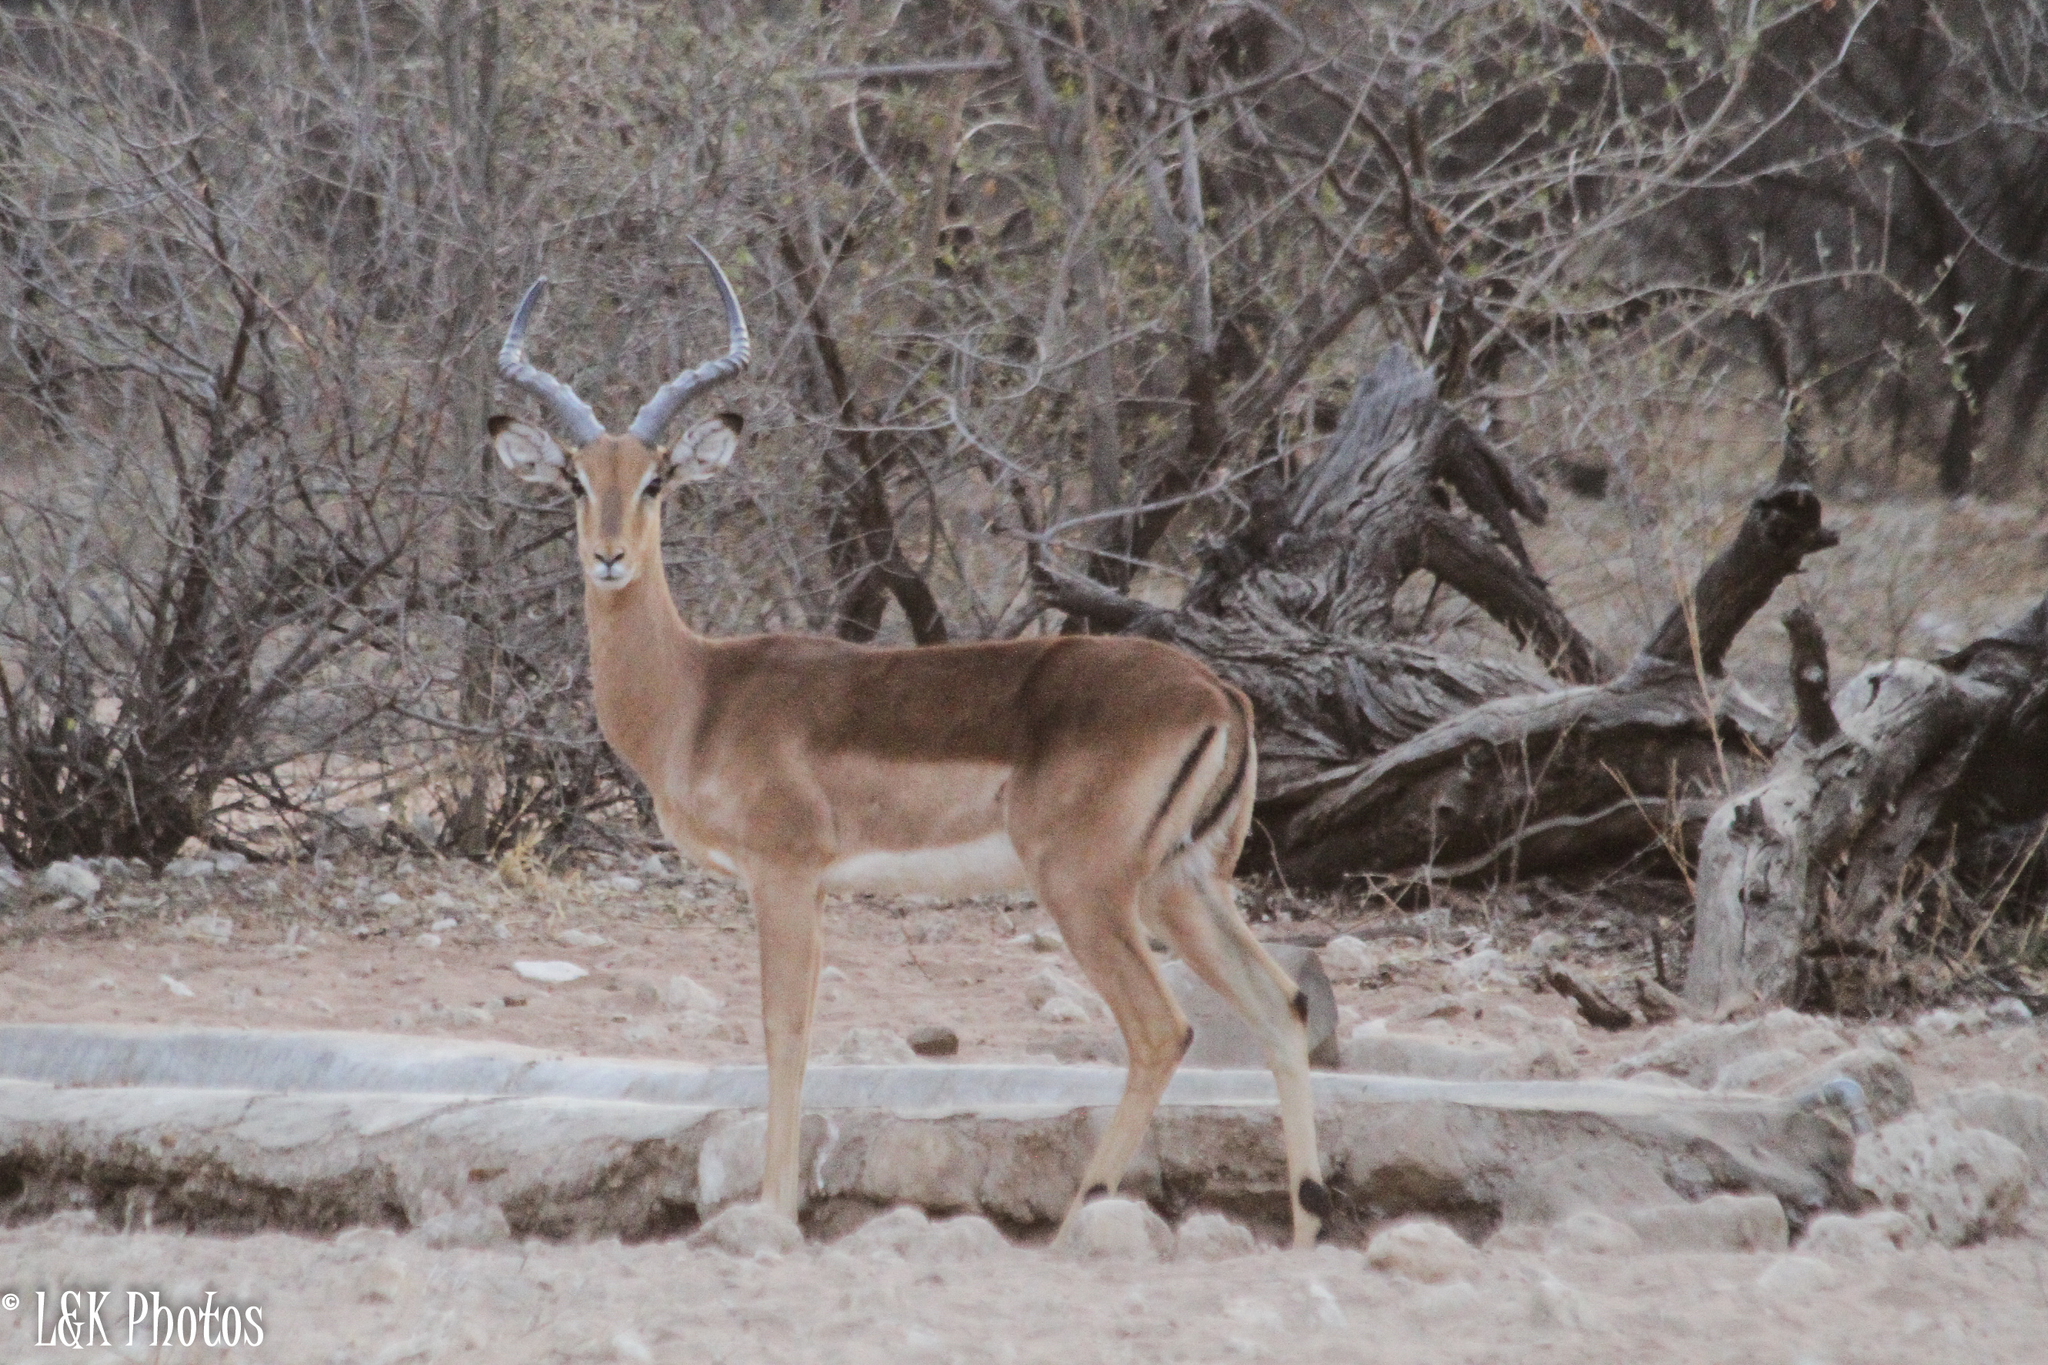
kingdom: Animalia
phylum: Chordata
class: Mammalia
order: Artiodactyla
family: Bovidae
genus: Aepyceros
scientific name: Aepyceros melampus
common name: Impala
